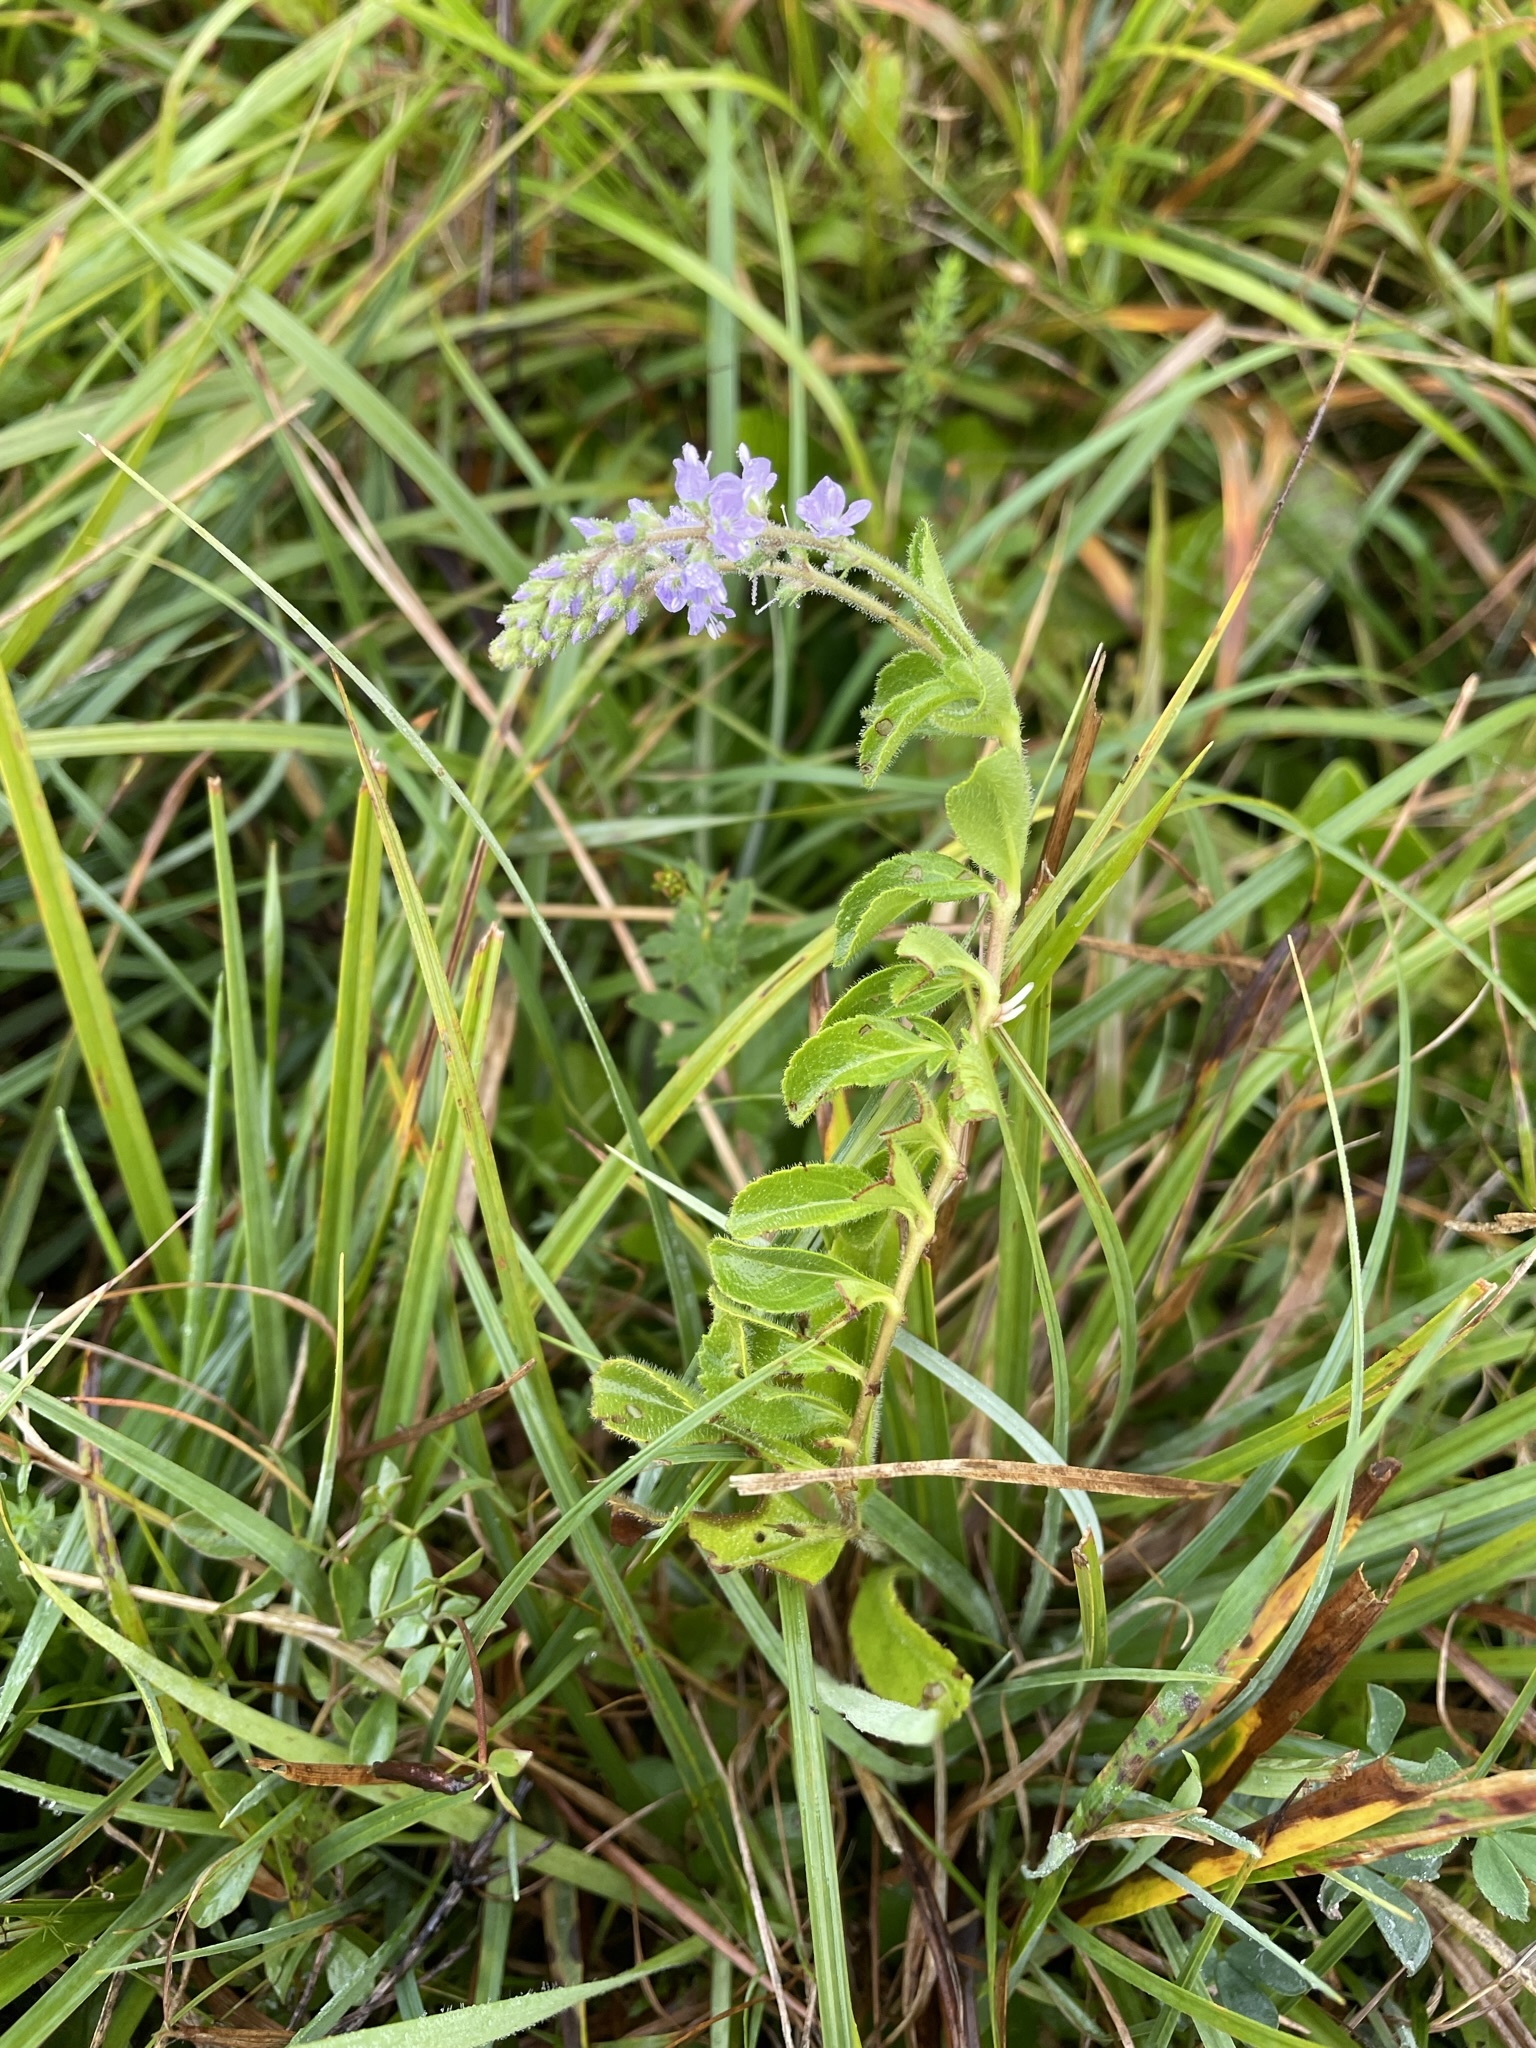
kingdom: Plantae
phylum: Tracheophyta
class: Magnoliopsida
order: Lamiales
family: Plantaginaceae
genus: Veronica
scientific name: Veronica officinalis
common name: Common speedwell
